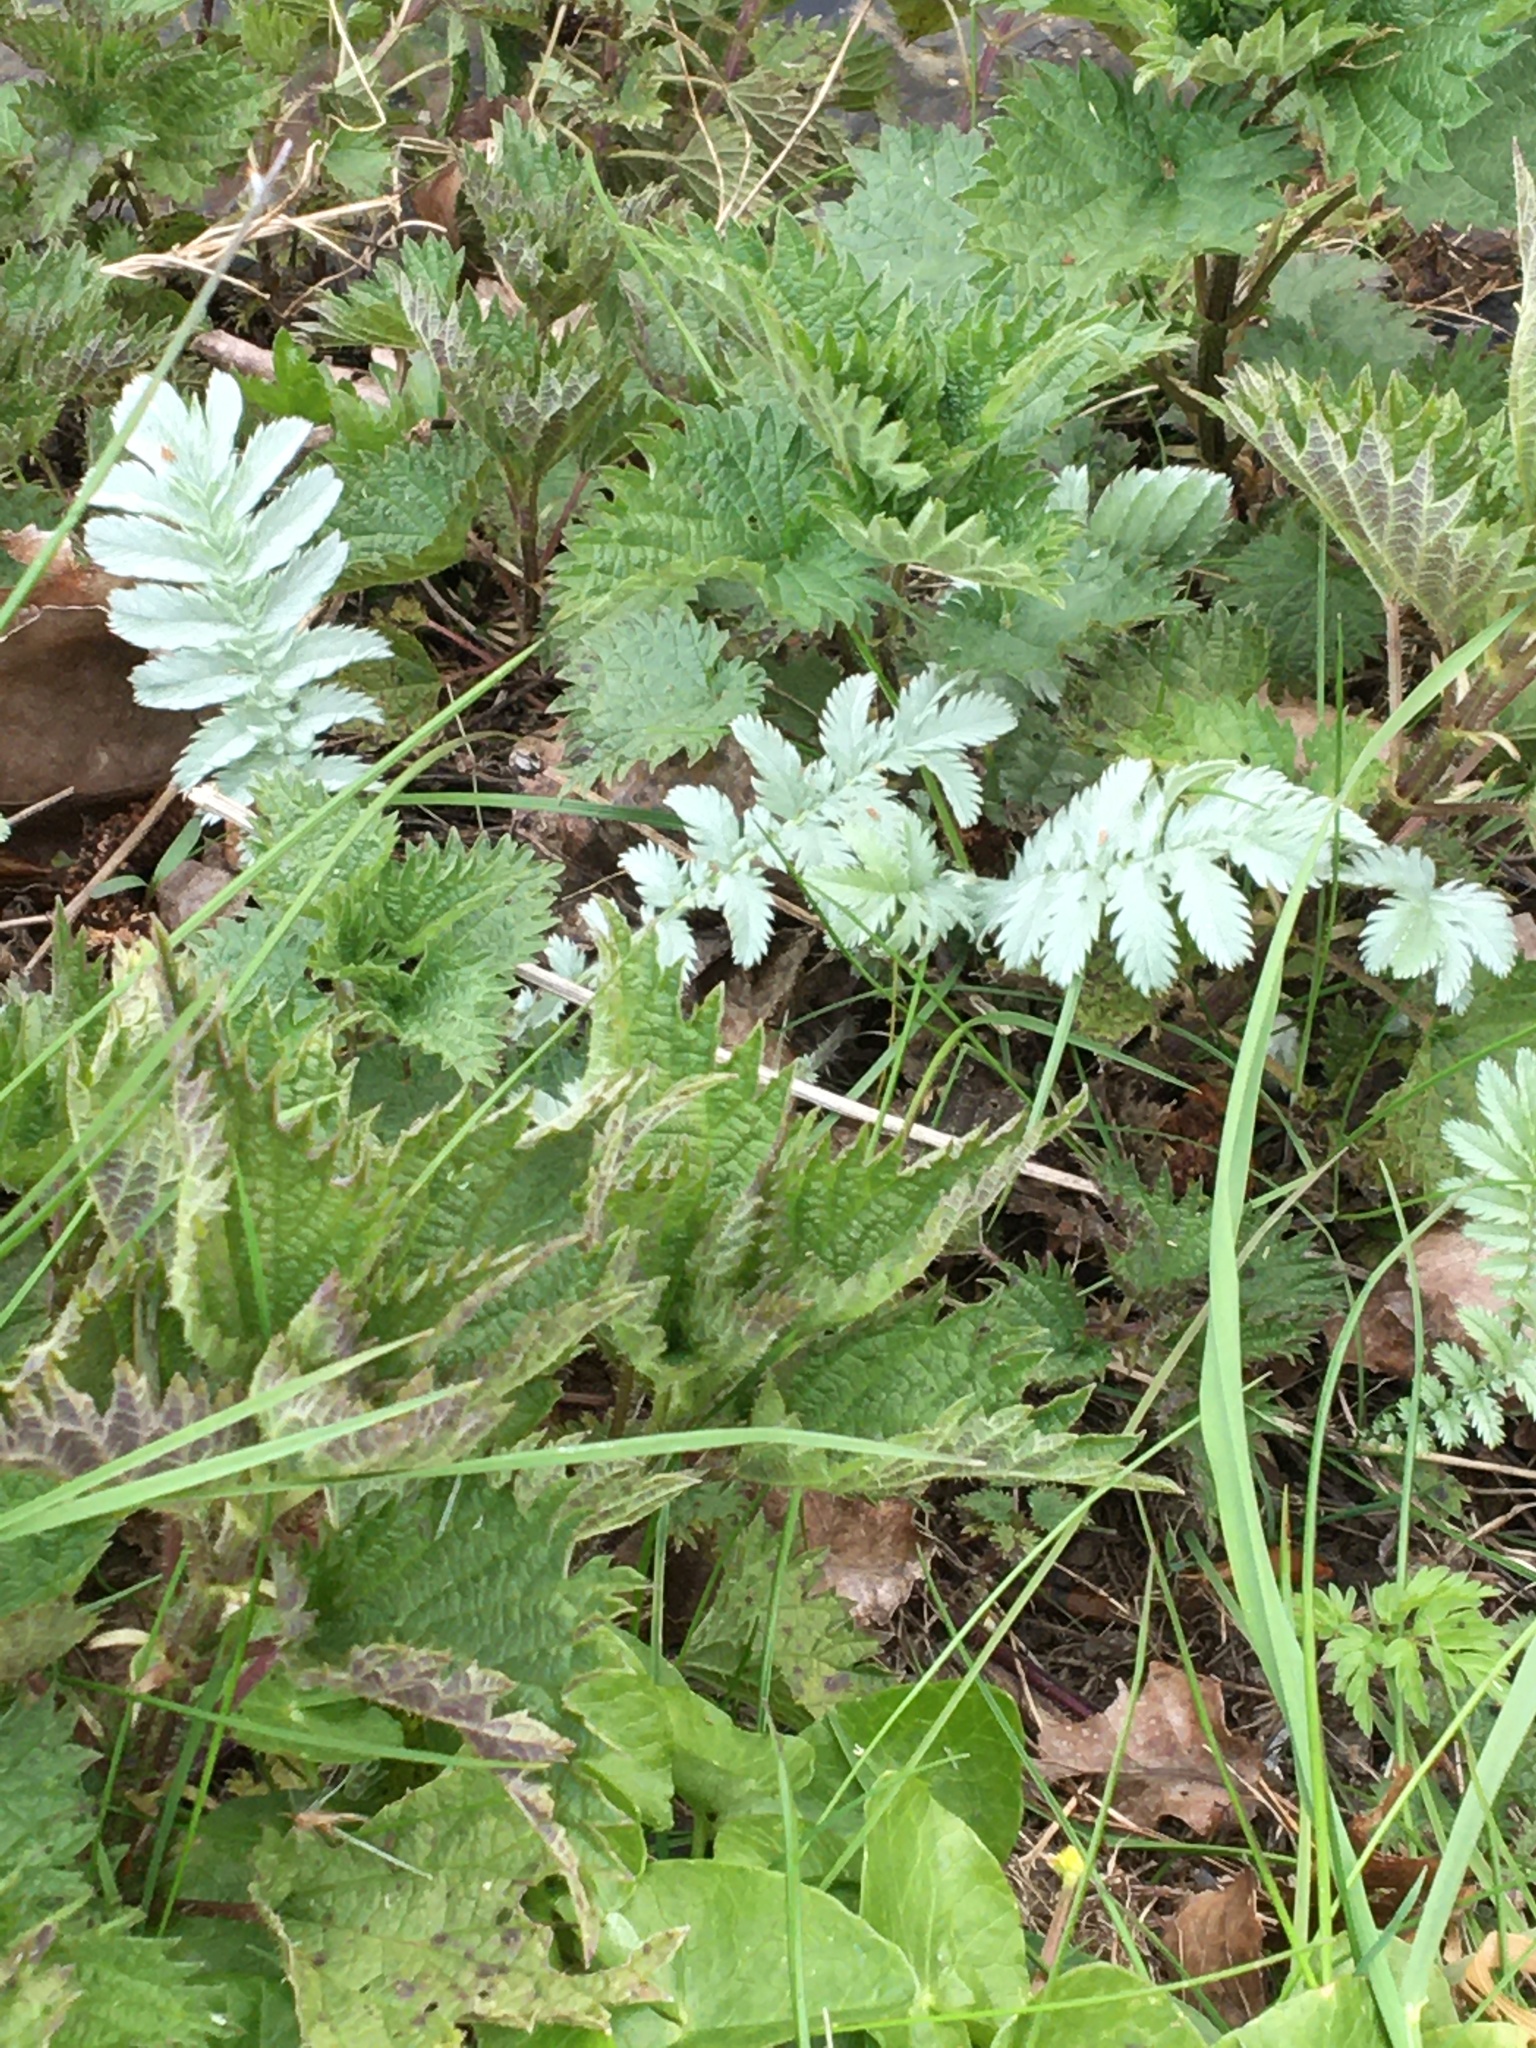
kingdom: Plantae
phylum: Tracheophyta
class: Magnoliopsida
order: Rosales
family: Rosaceae
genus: Argentina
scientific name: Argentina anserina
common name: Common silverweed
